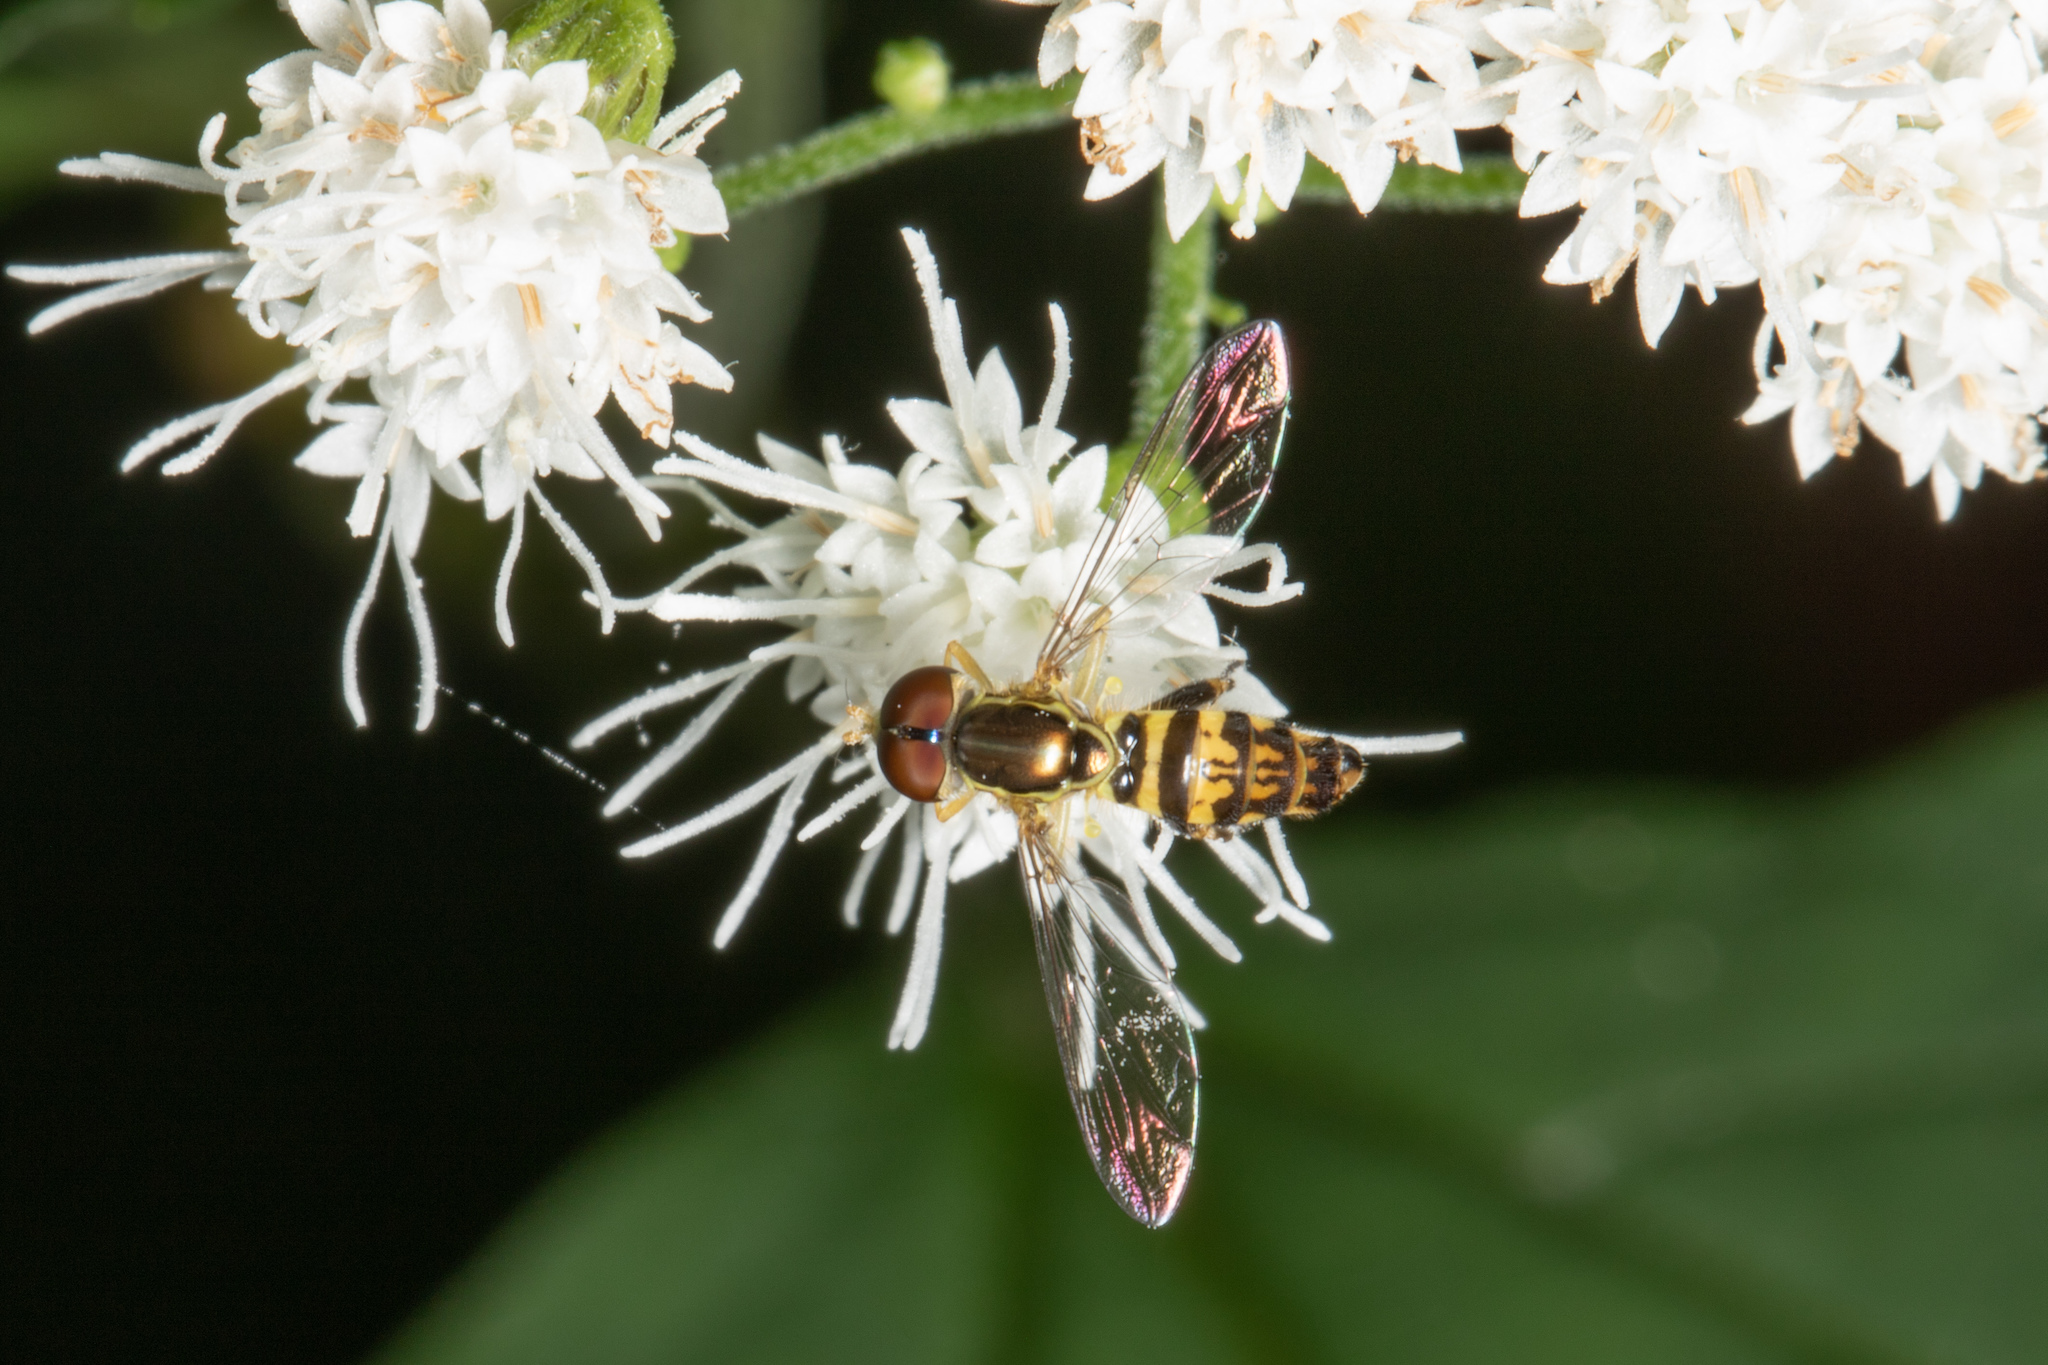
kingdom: Animalia
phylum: Arthropoda
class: Insecta
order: Diptera
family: Syrphidae
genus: Toxomerus
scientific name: Toxomerus geminatus
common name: Eastern calligrapher
